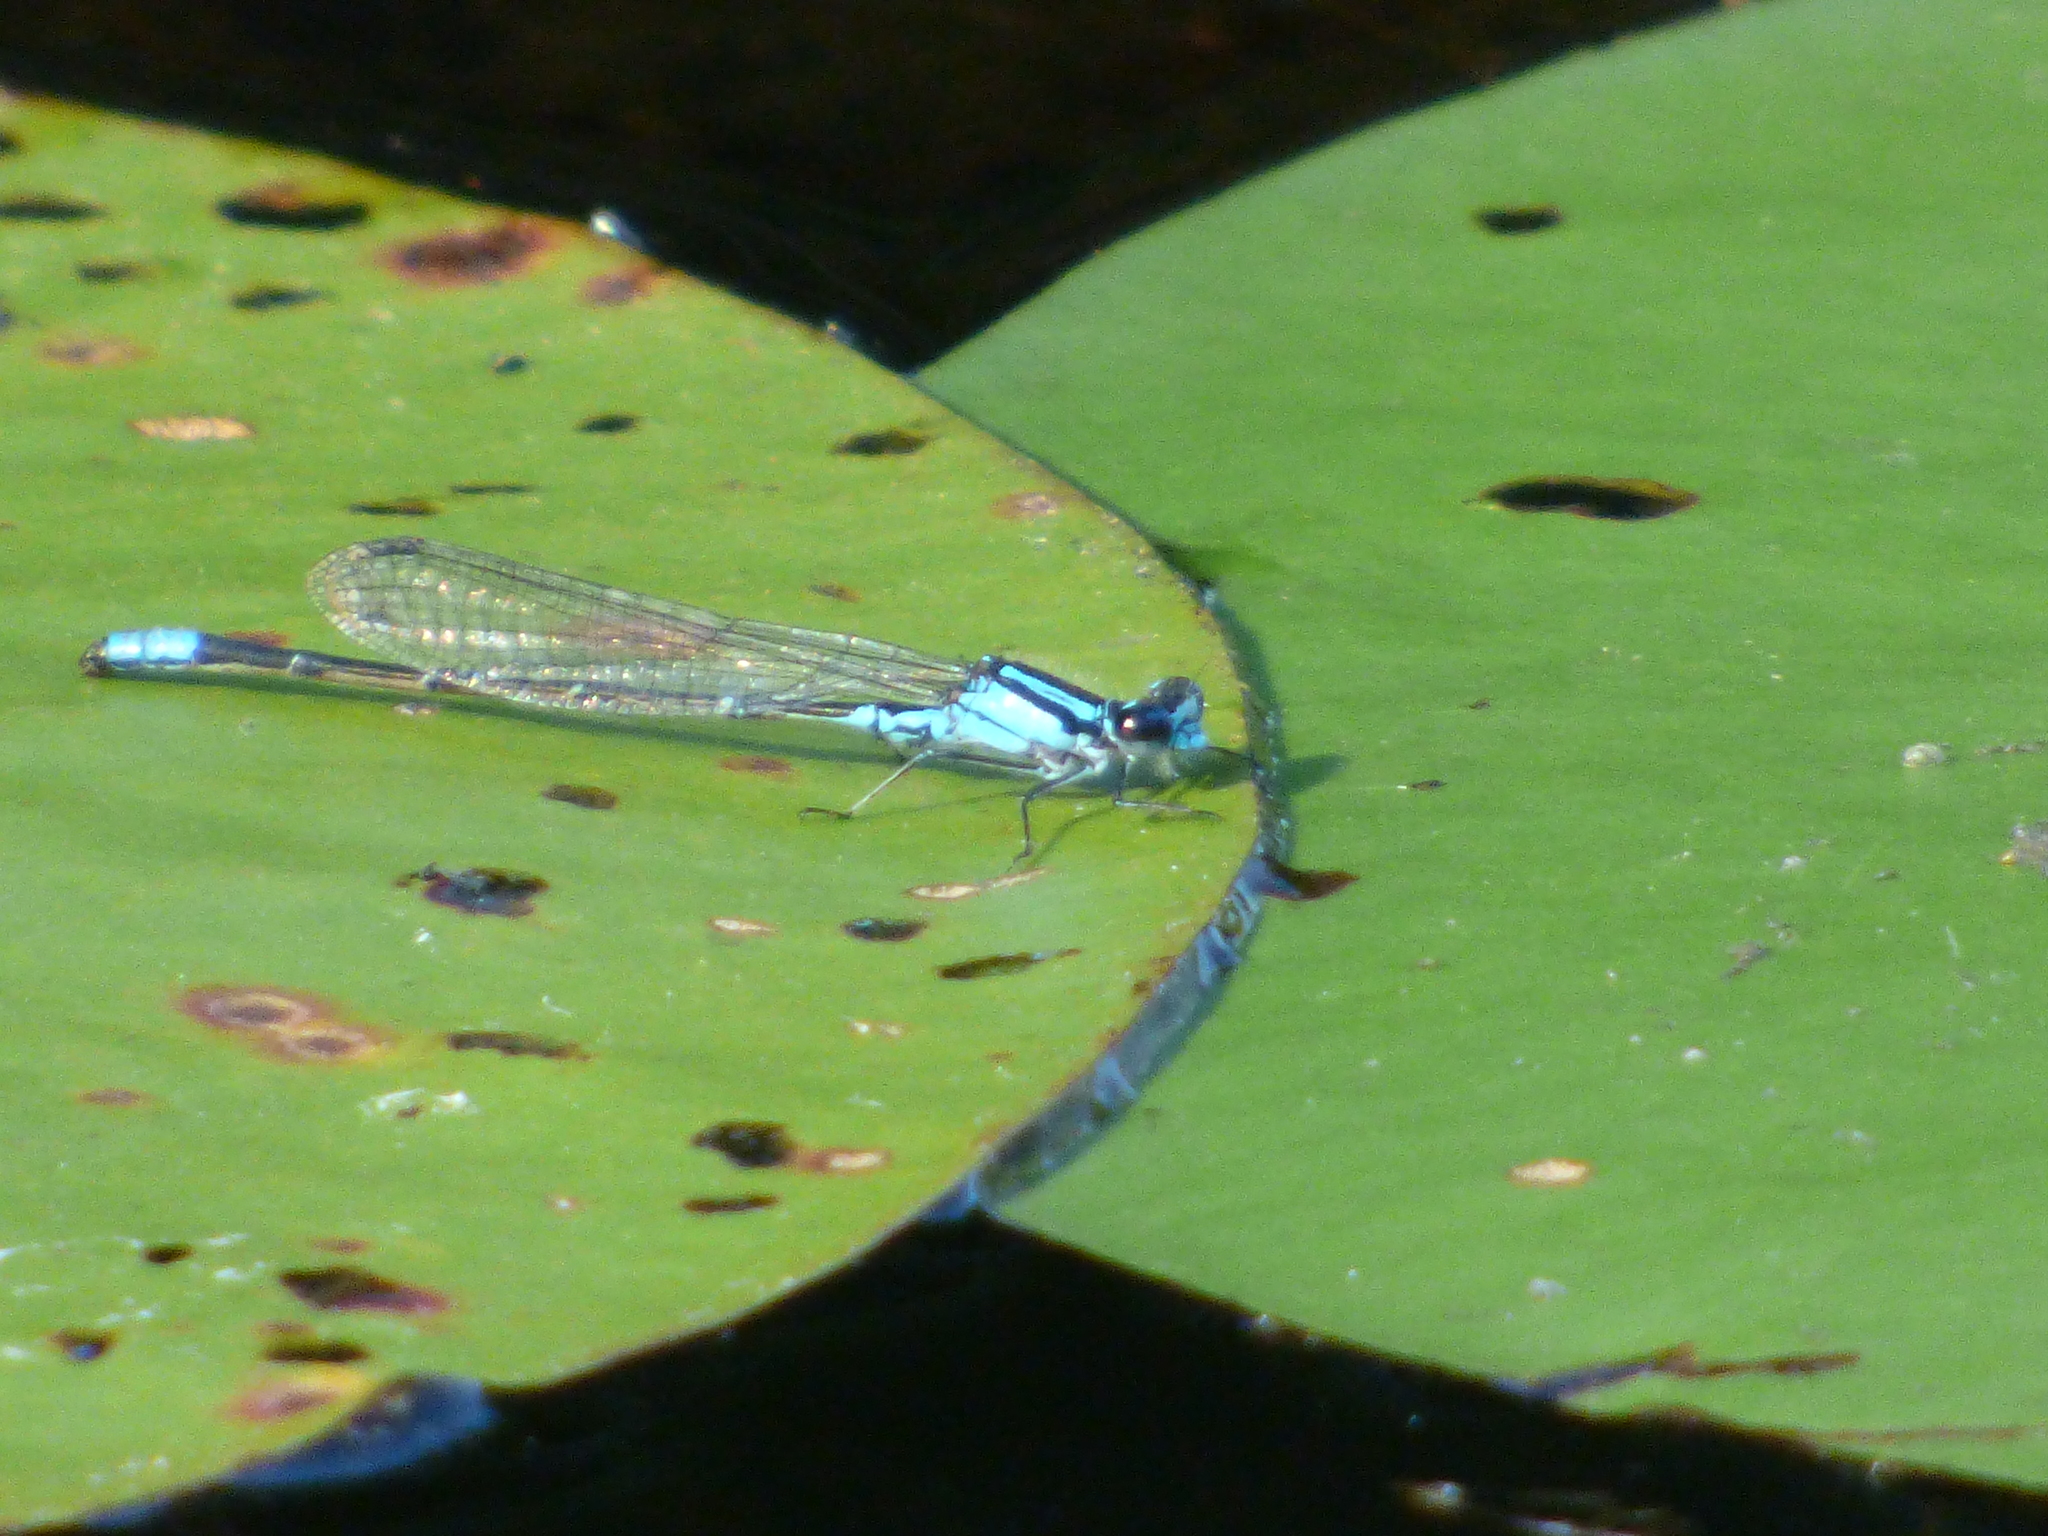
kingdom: Animalia
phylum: Arthropoda
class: Insecta
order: Odonata
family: Coenagrionidae
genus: Enallagma
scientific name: Enallagma geminatum
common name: Skimming bluet
